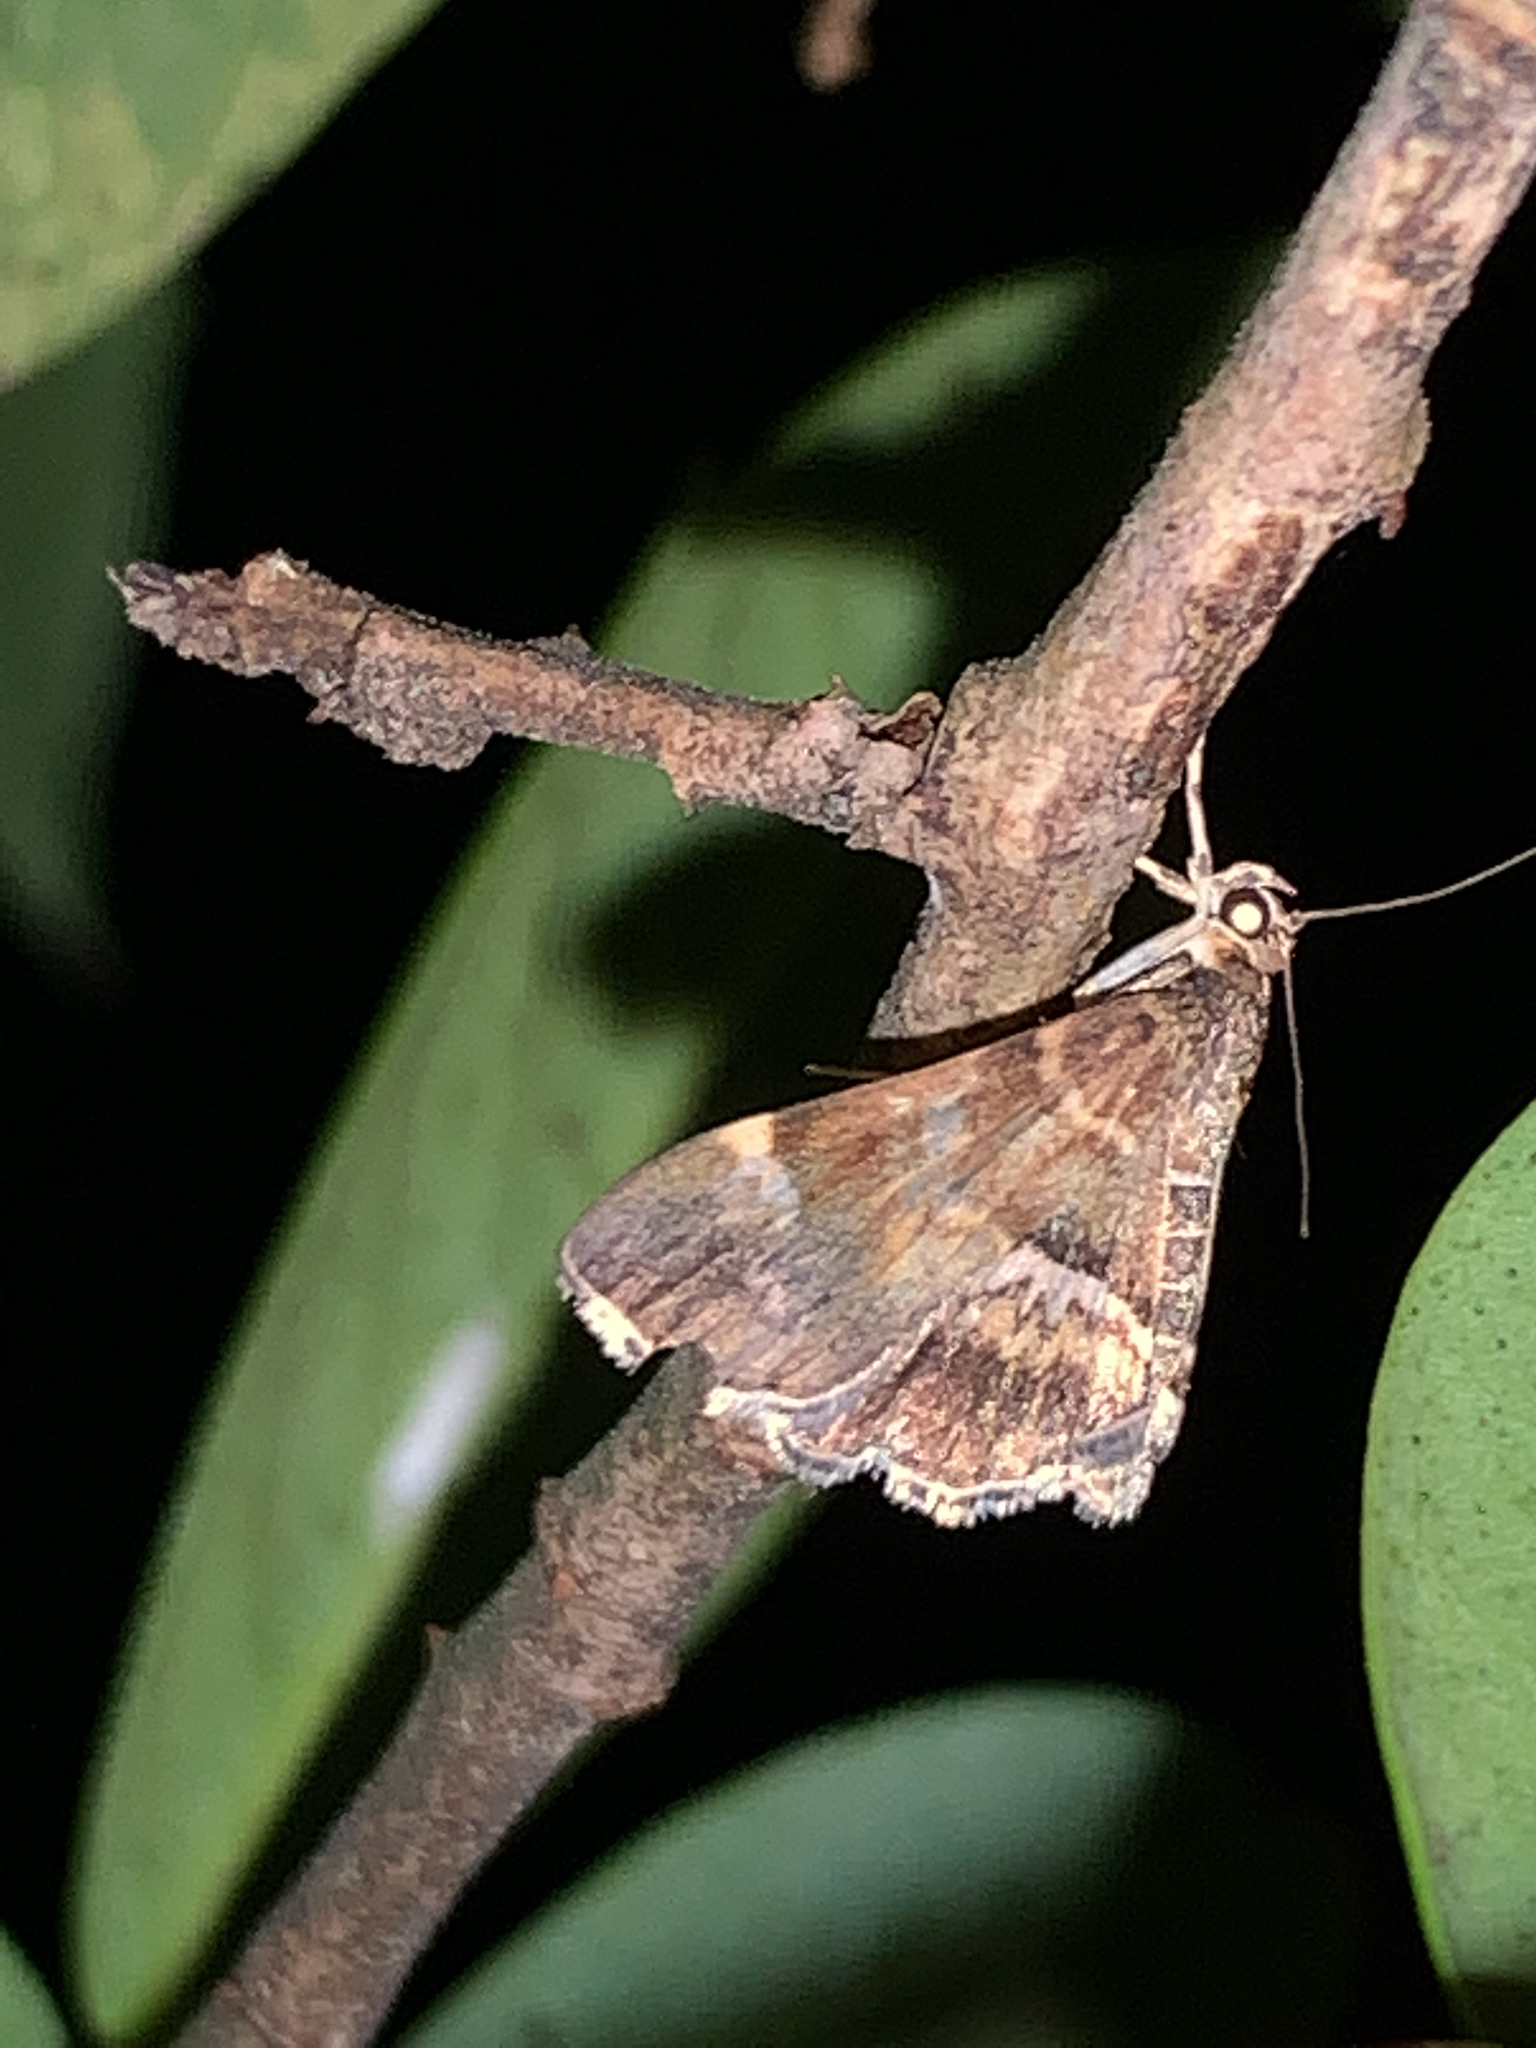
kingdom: Animalia
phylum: Arthropoda
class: Insecta
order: Lepidoptera
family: Crambidae
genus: Hymenia
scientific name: Hymenia perspectalis
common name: Spotted beet webworm
